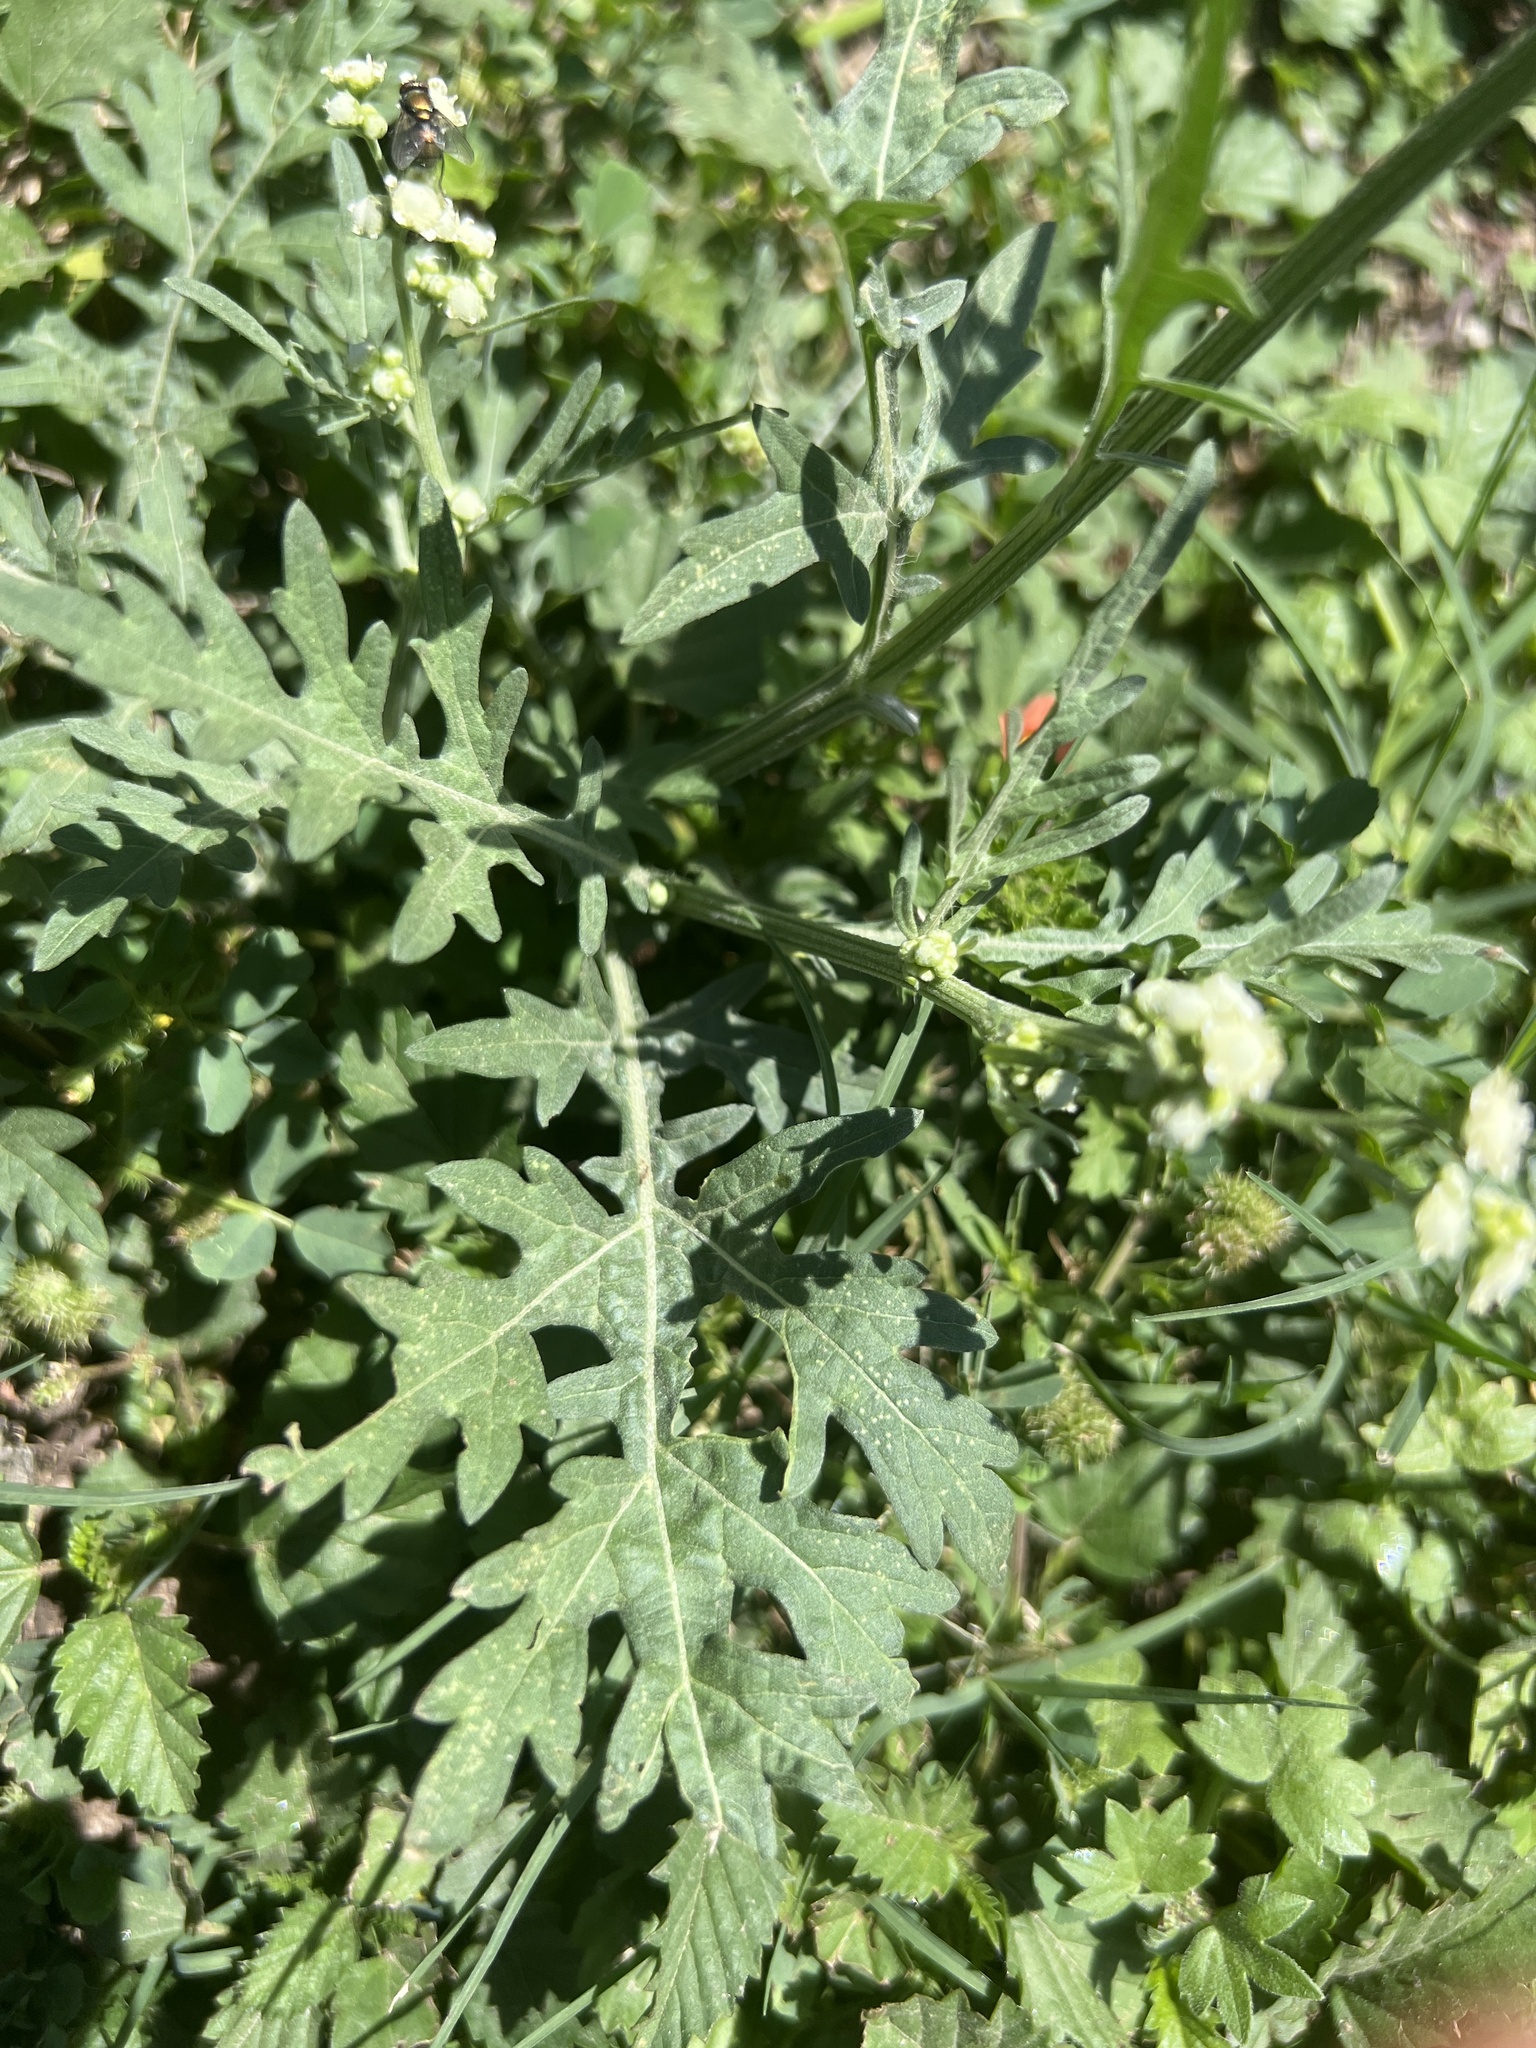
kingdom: Plantae
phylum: Tracheophyta
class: Magnoliopsida
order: Asterales
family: Asteraceae
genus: Parthenium
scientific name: Parthenium hysterophorus
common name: Santa maria feverfew
